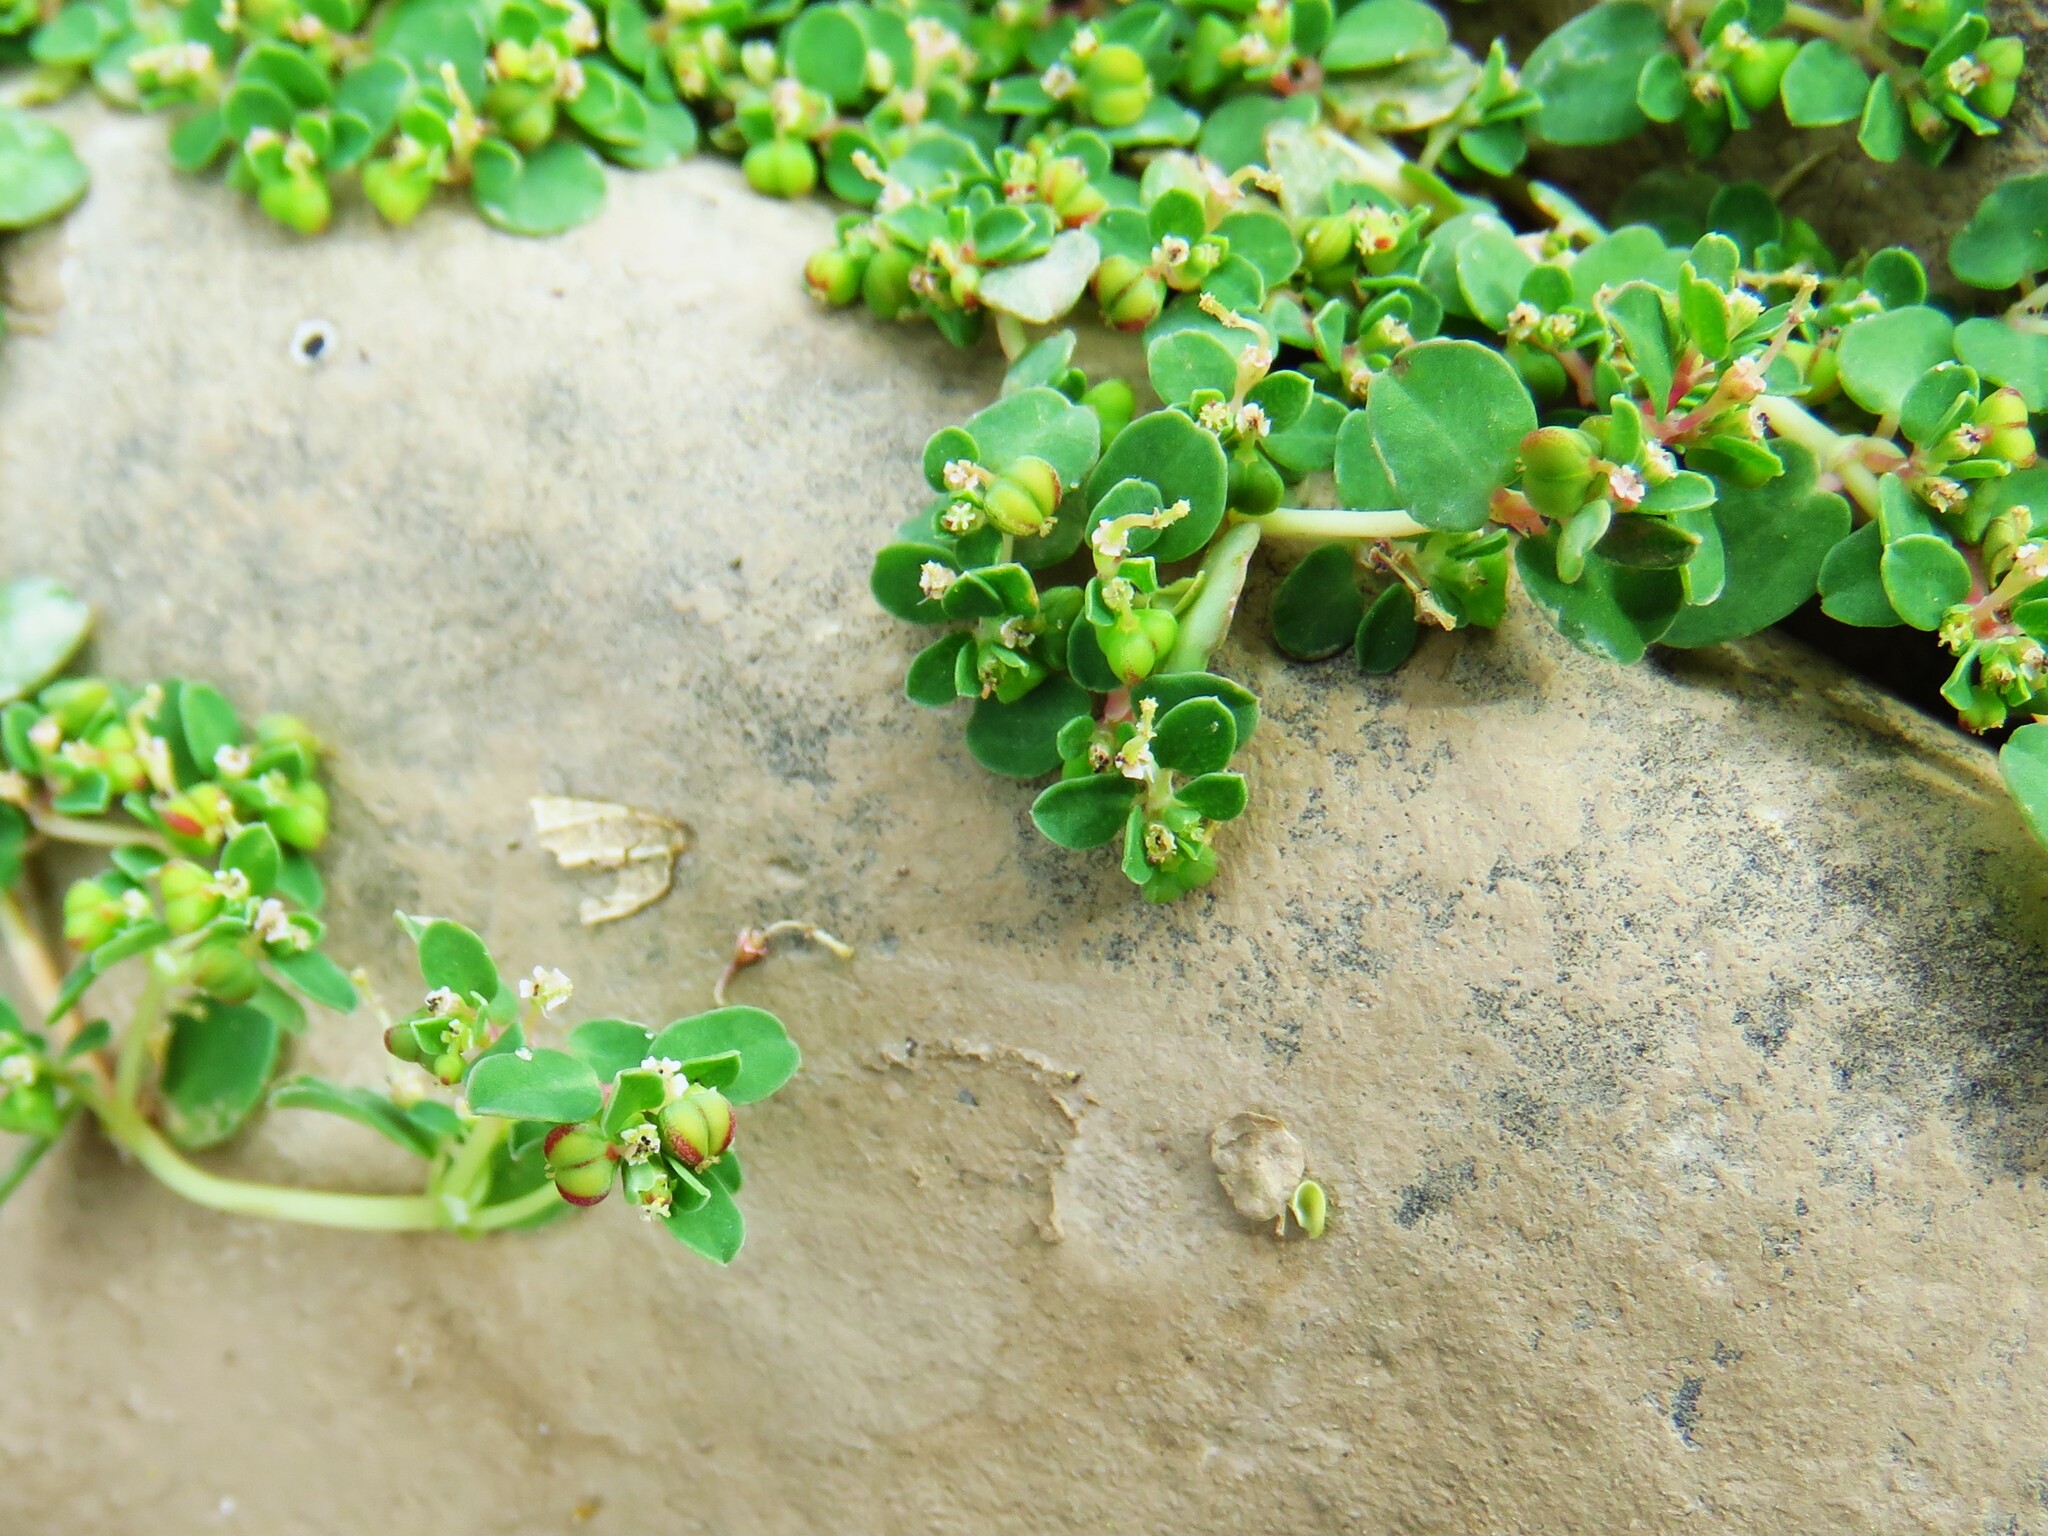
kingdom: Plantae
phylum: Tracheophyta
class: Magnoliopsida
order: Malpighiales
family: Euphorbiaceae
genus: Euphorbia
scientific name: Euphorbia serpens
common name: Matted sandmat
